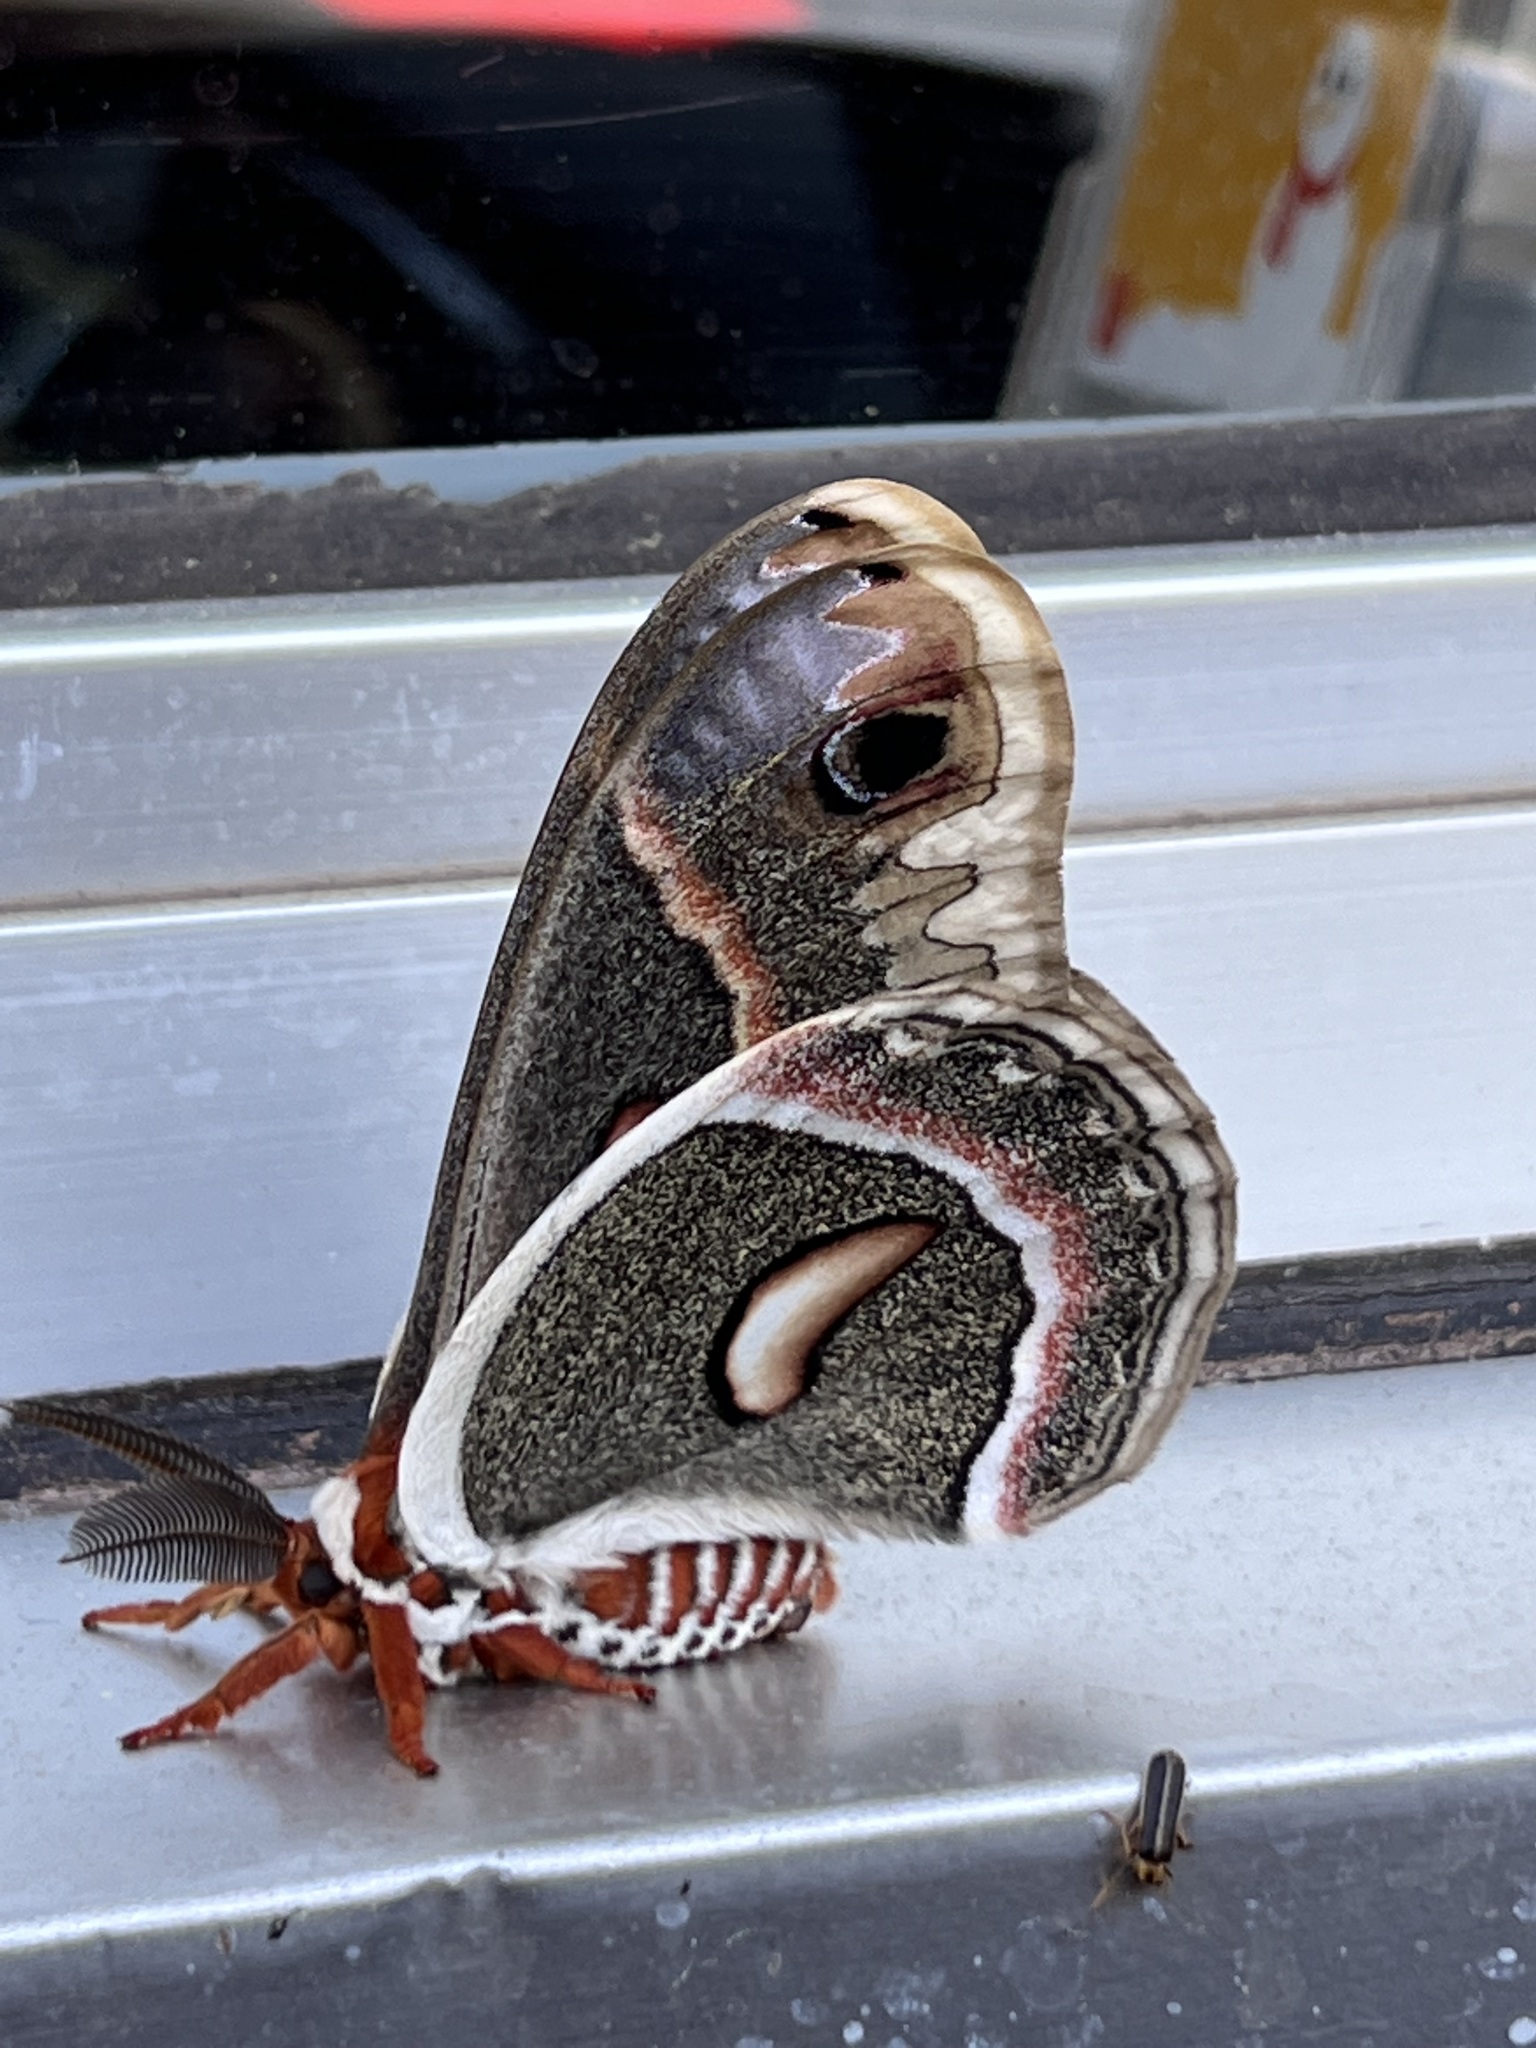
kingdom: Animalia
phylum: Arthropoda
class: Insecta
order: Lepidoptera
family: Saturniidae
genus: Hyalophora
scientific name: Hyalophora cecropia
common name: Cecropia silkmoth
